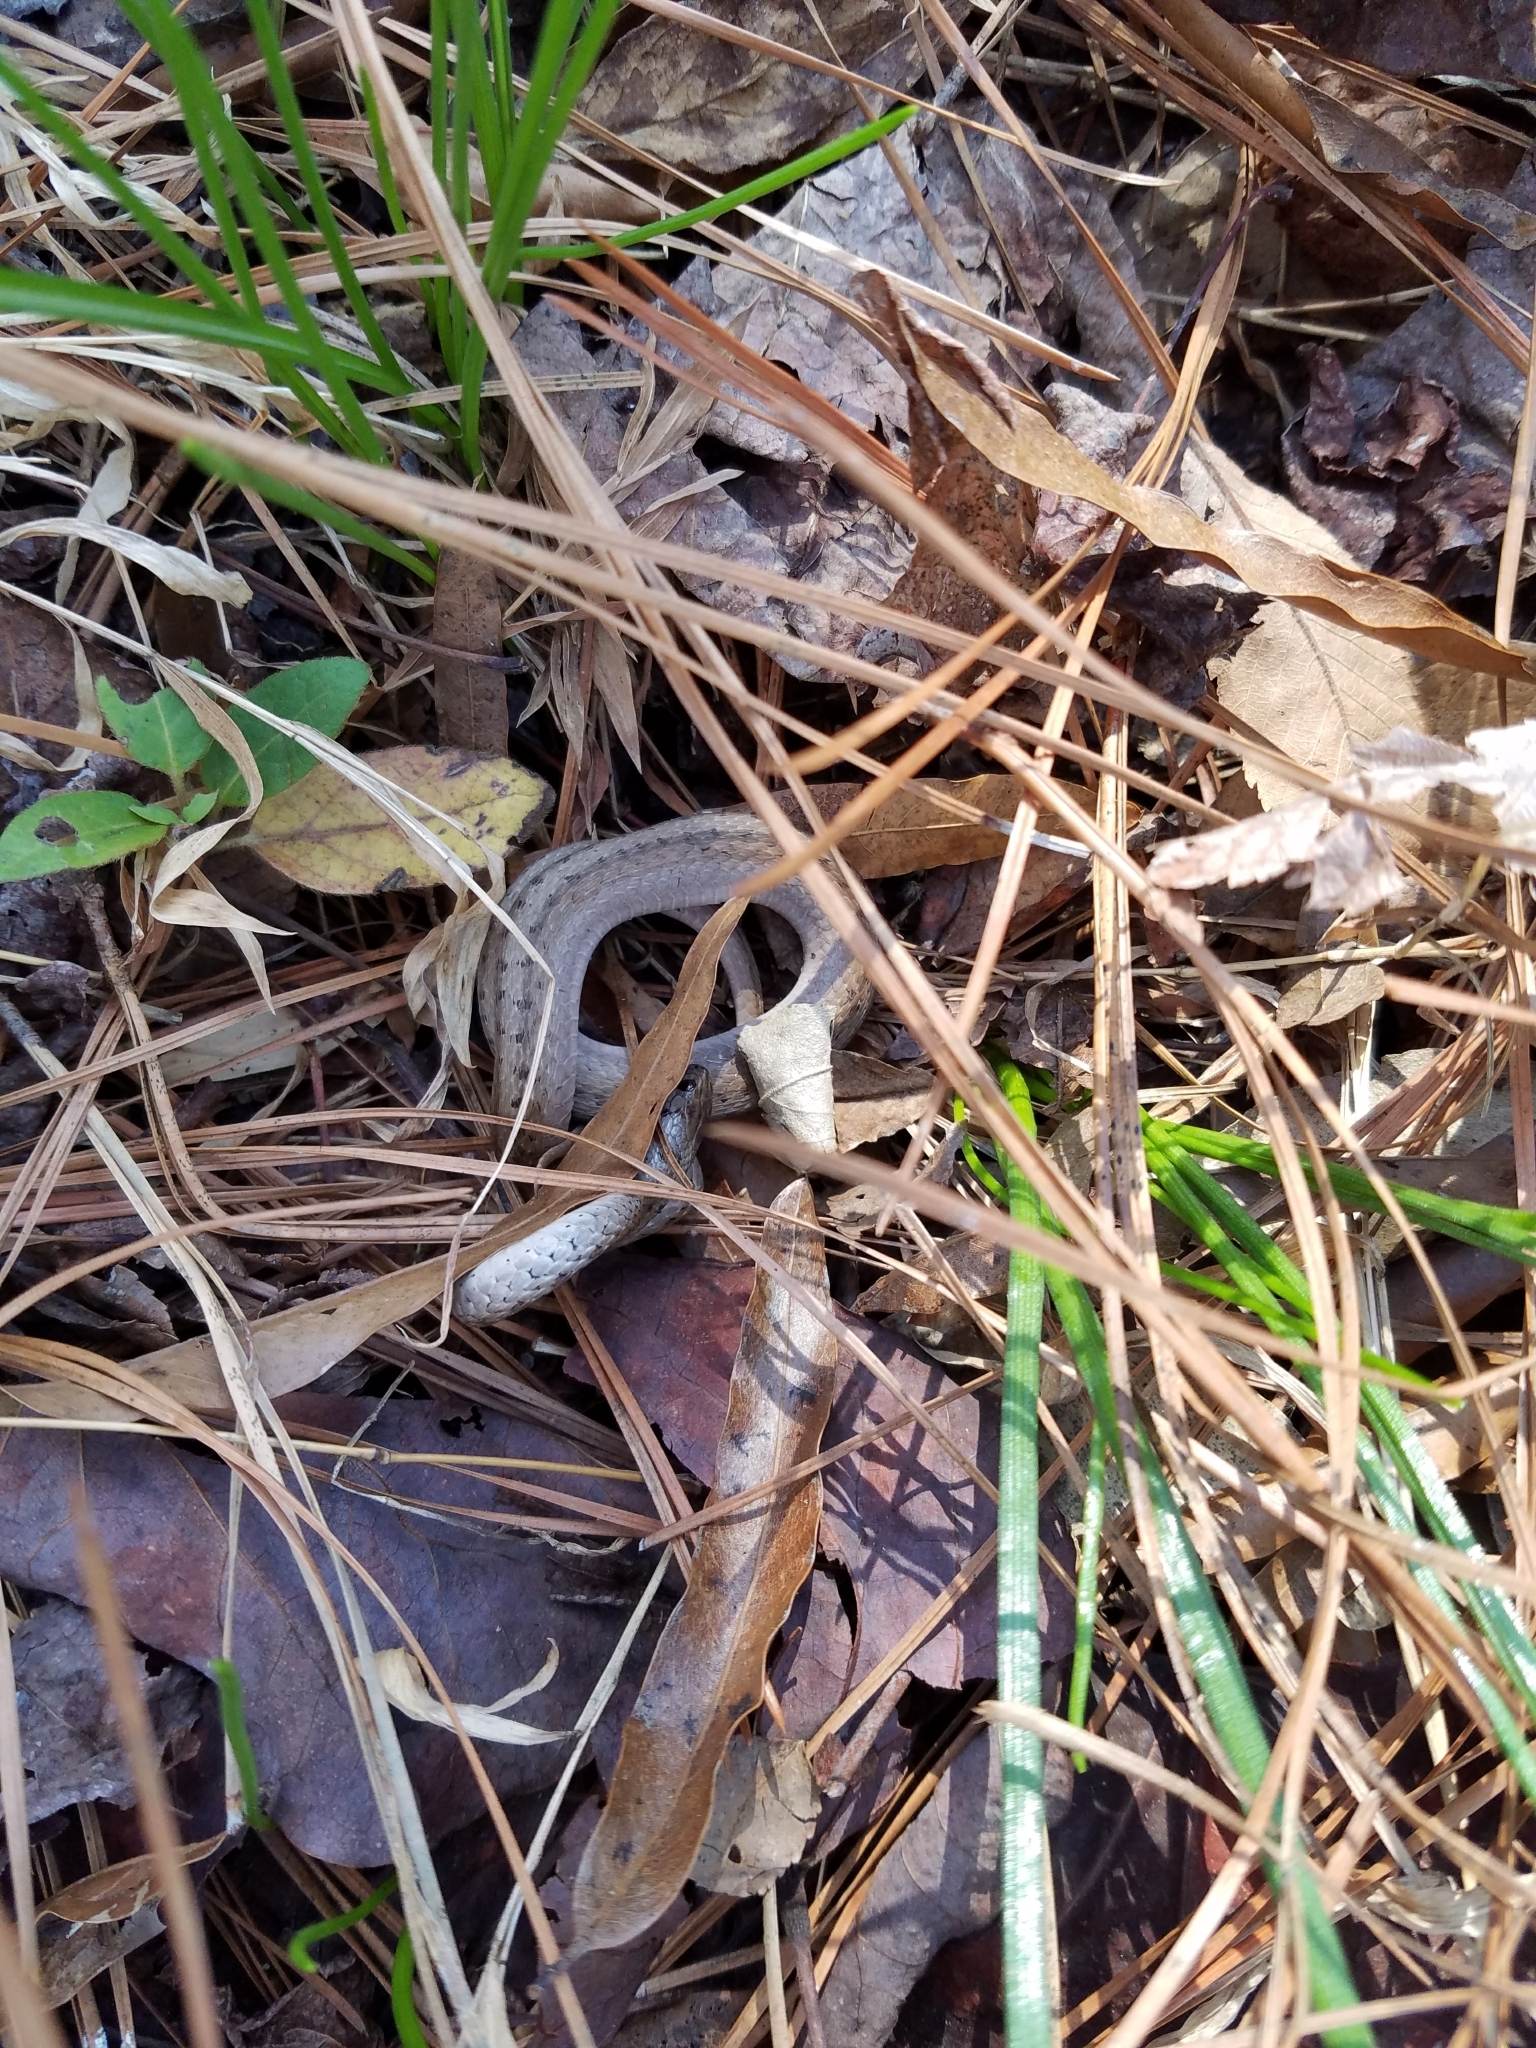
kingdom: Animalia
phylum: Chordata
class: Squamata
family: Colubridae
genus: Storeria
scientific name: Storeria dekayi
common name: (dekay’s) brown snake
